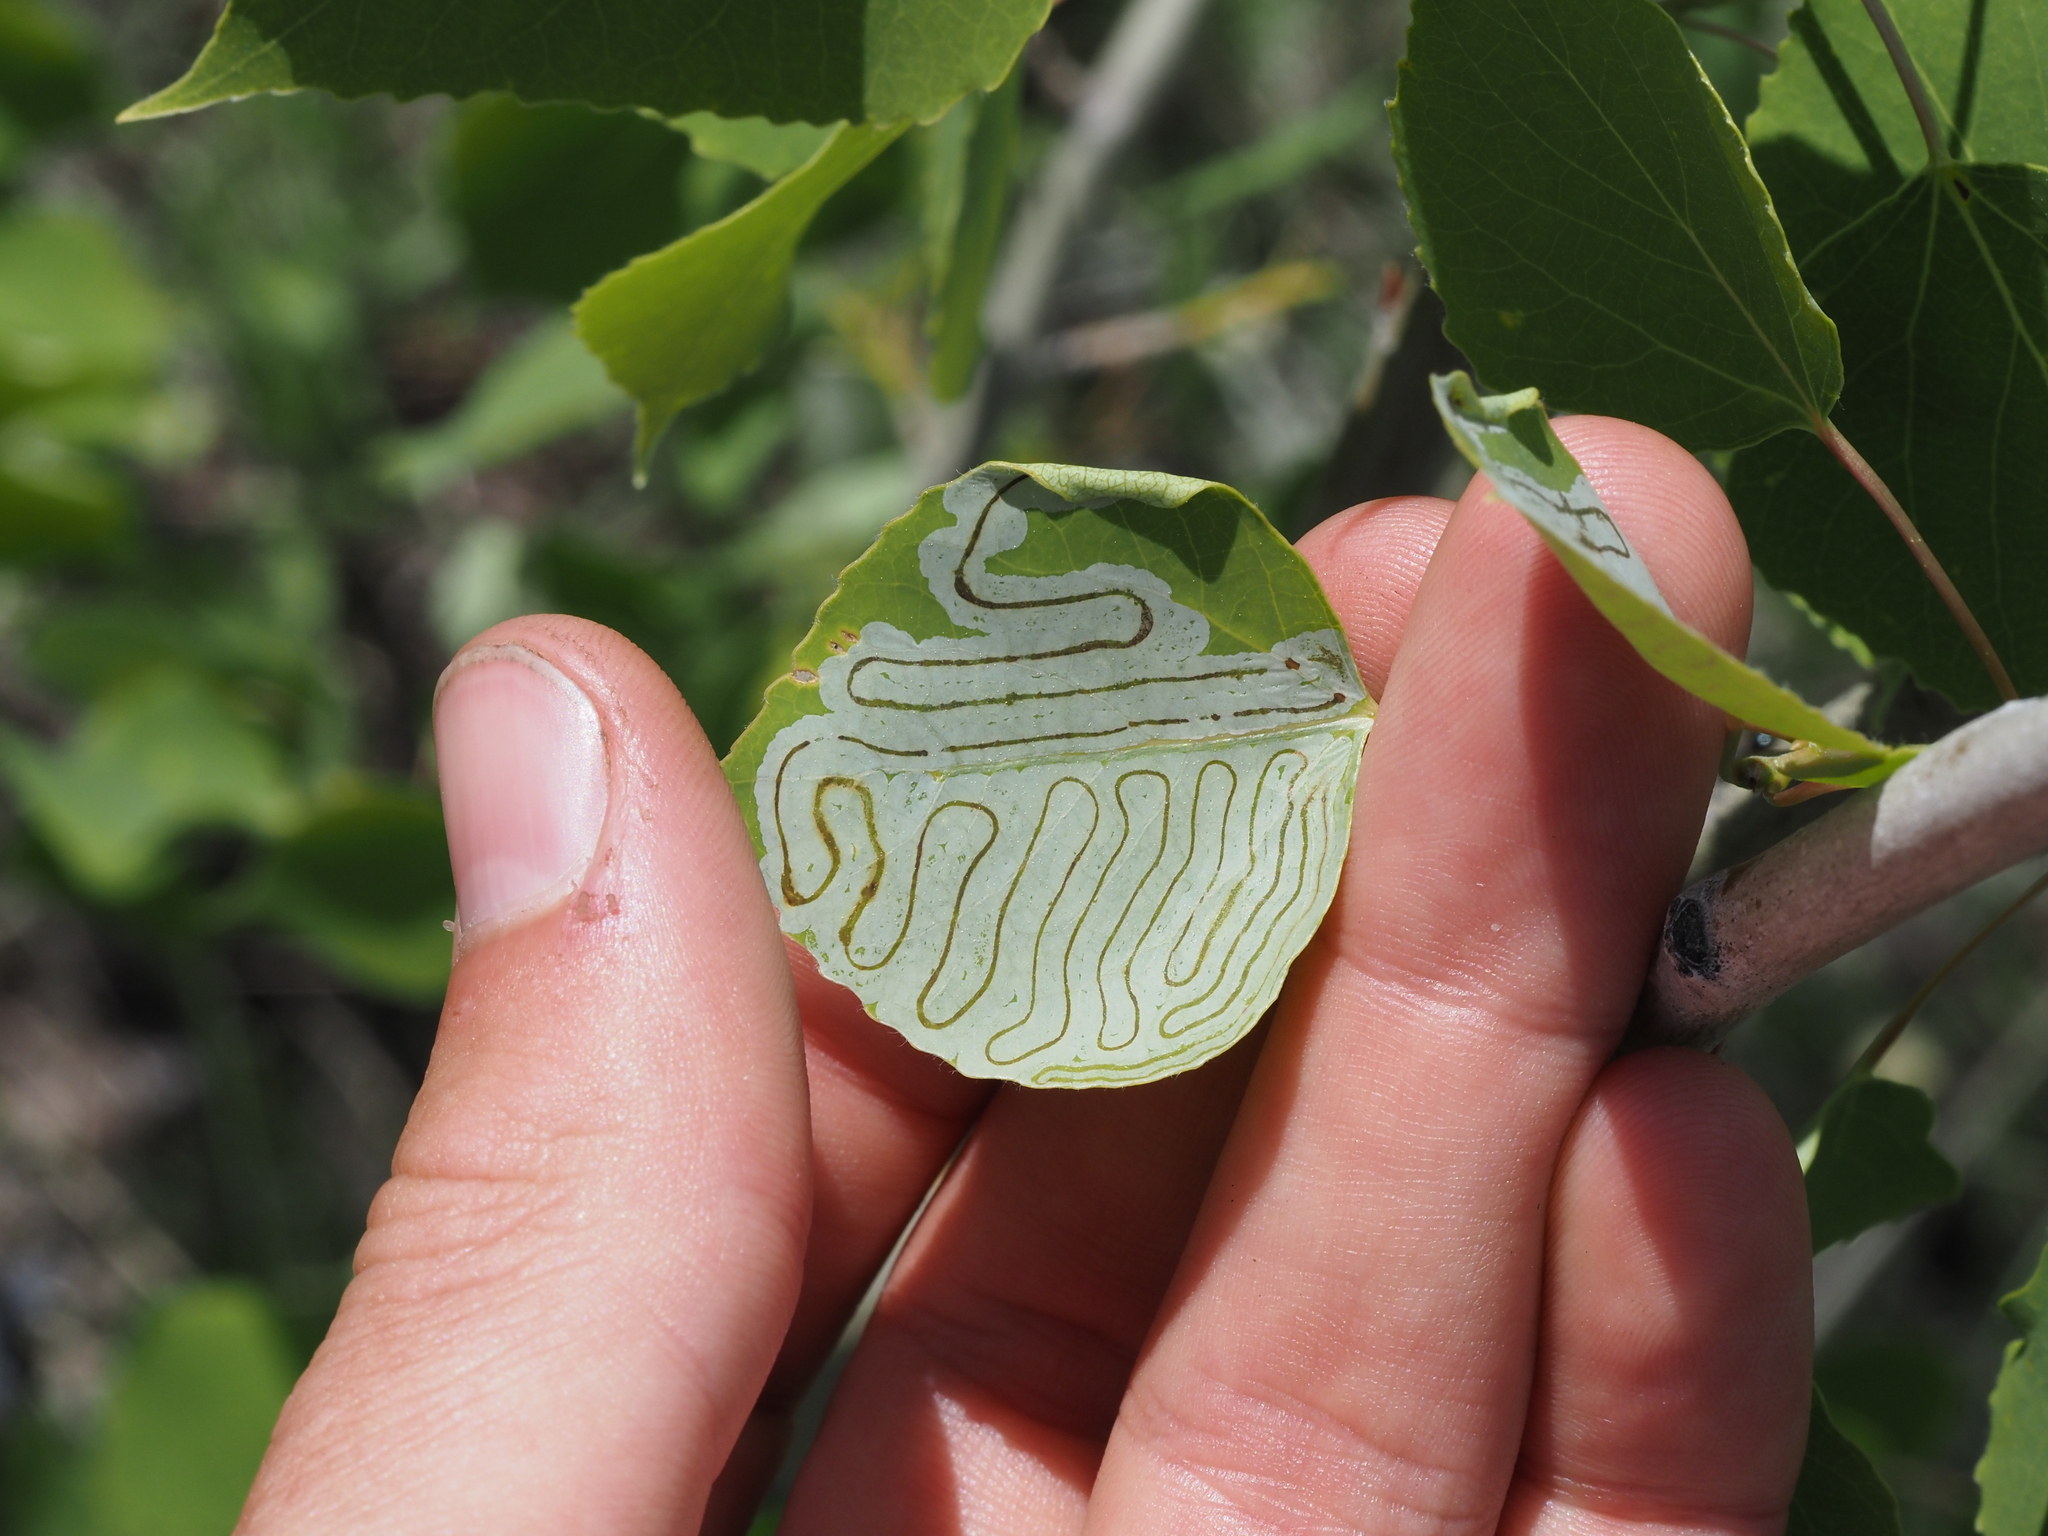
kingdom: Animalia
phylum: Arthropoda
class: Insecta
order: Lepidoptera
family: Gracillariidae
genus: Phyllocnistis
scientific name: Phyllocnistis populiella
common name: Aspen serpentine leafminer moth
